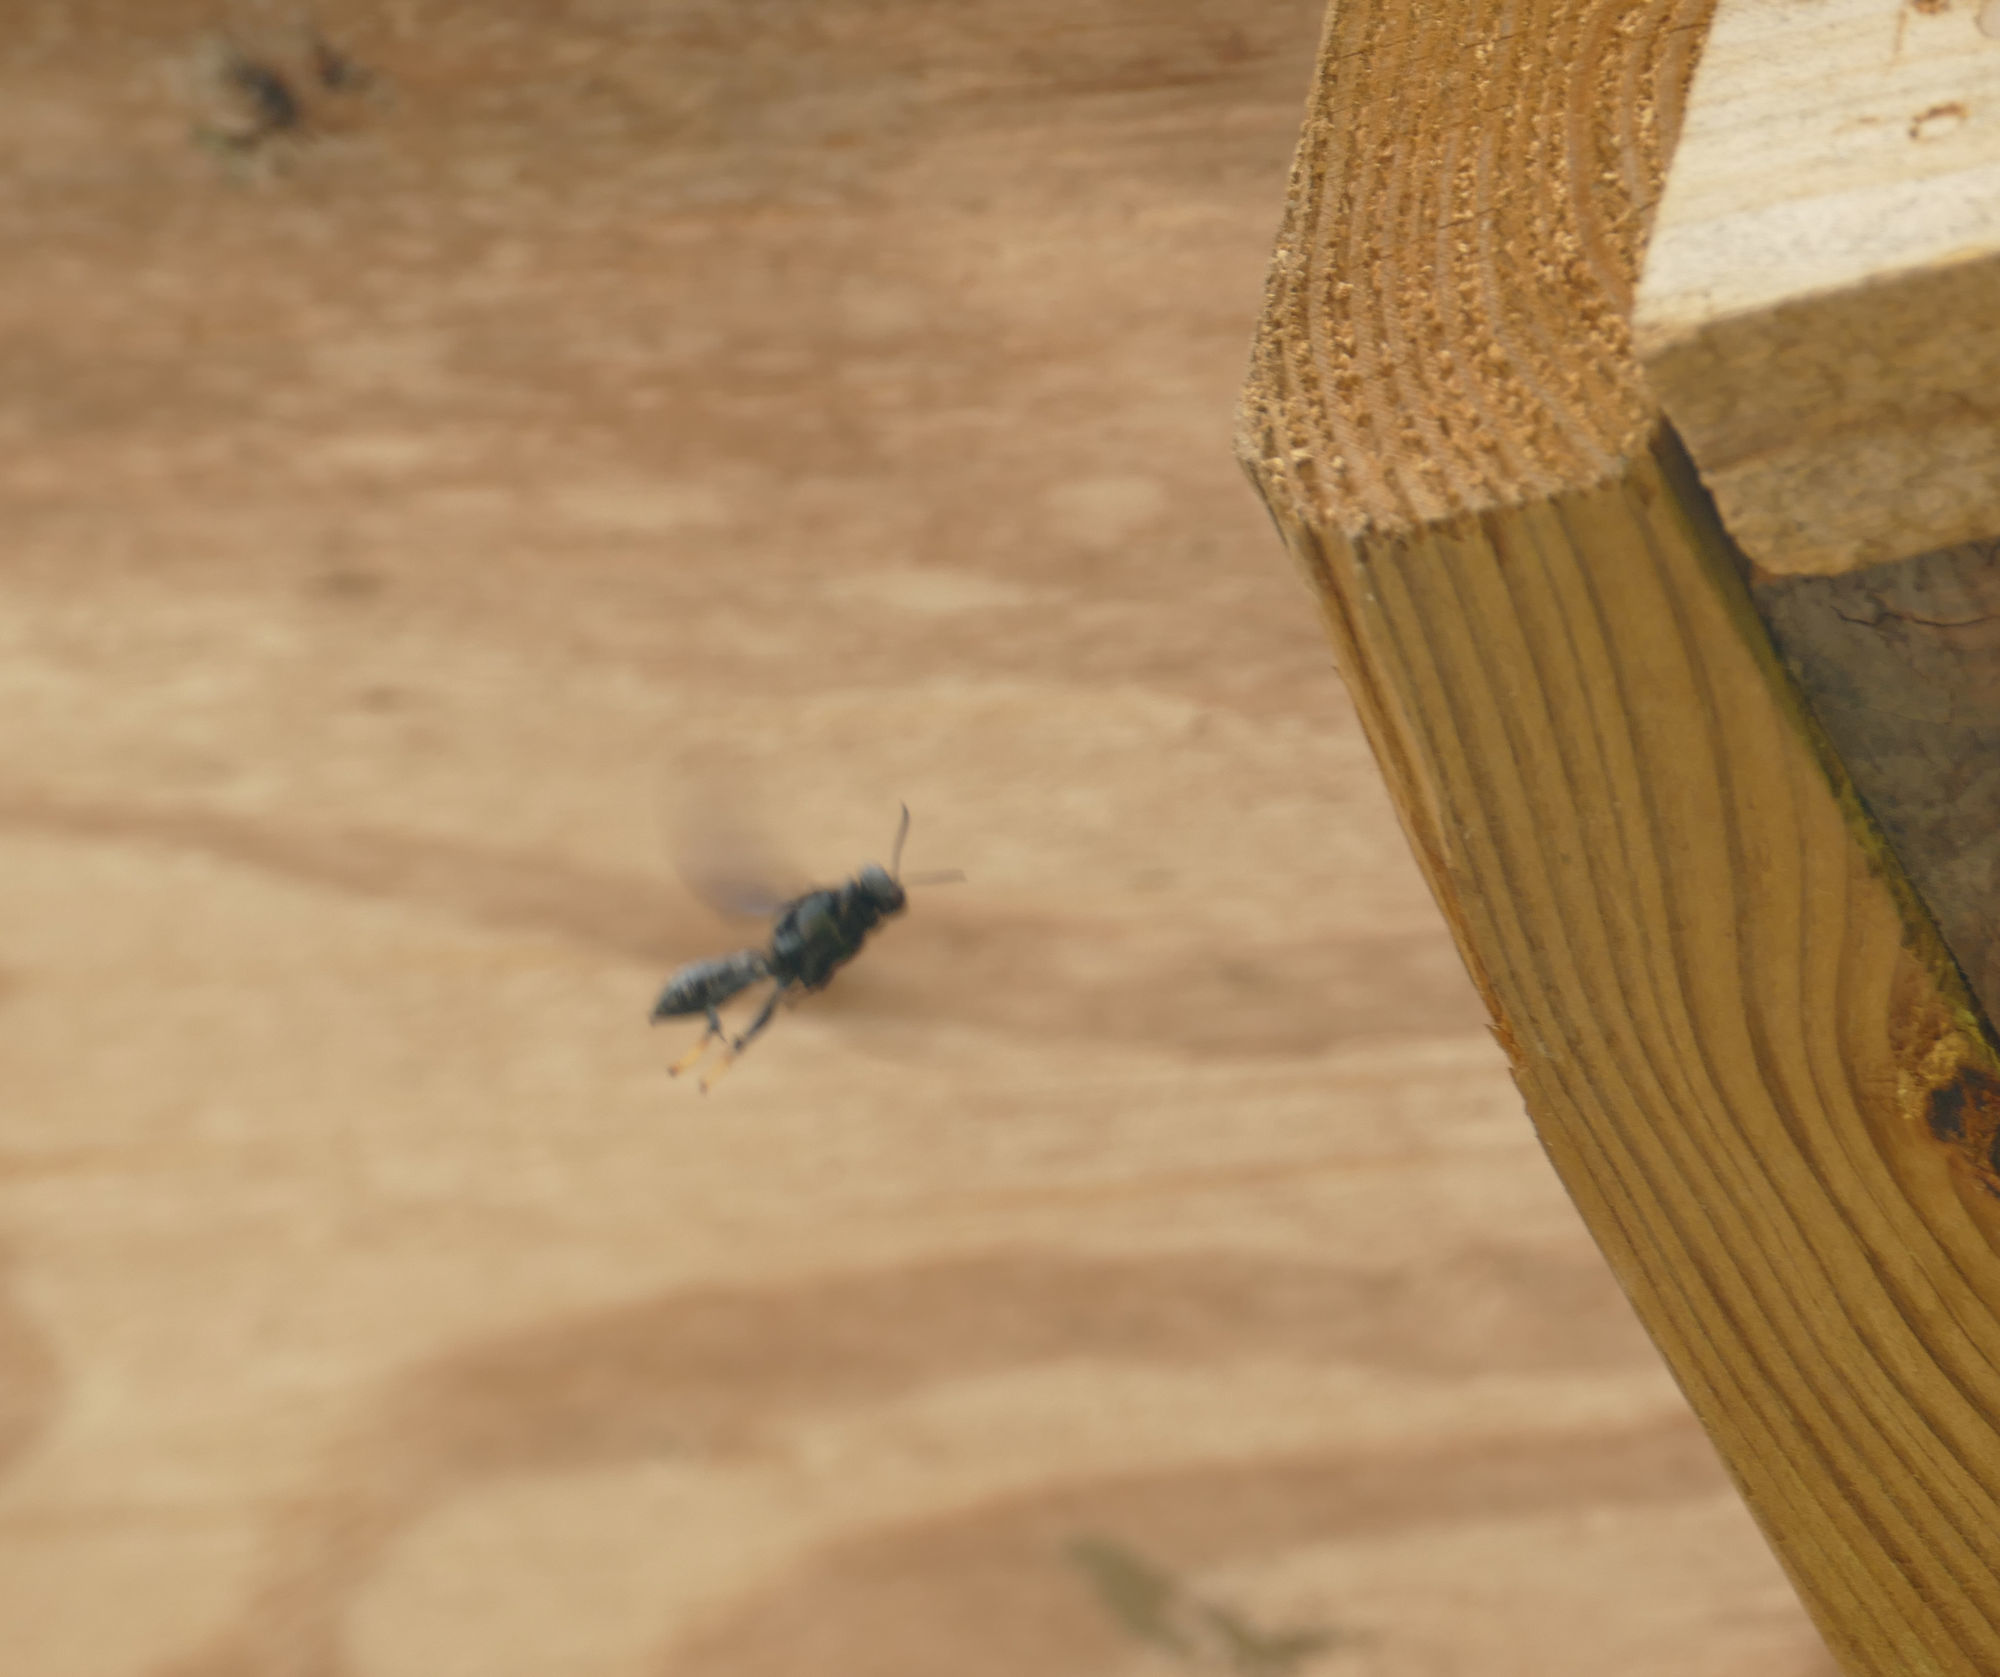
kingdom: Animalia
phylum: Arthropoda
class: Insecta
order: Hymenoptera
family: Crabronidae
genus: Trypoxylon
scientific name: Trypoxylon politum
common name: Organ-pipe mud-dauber wasp
